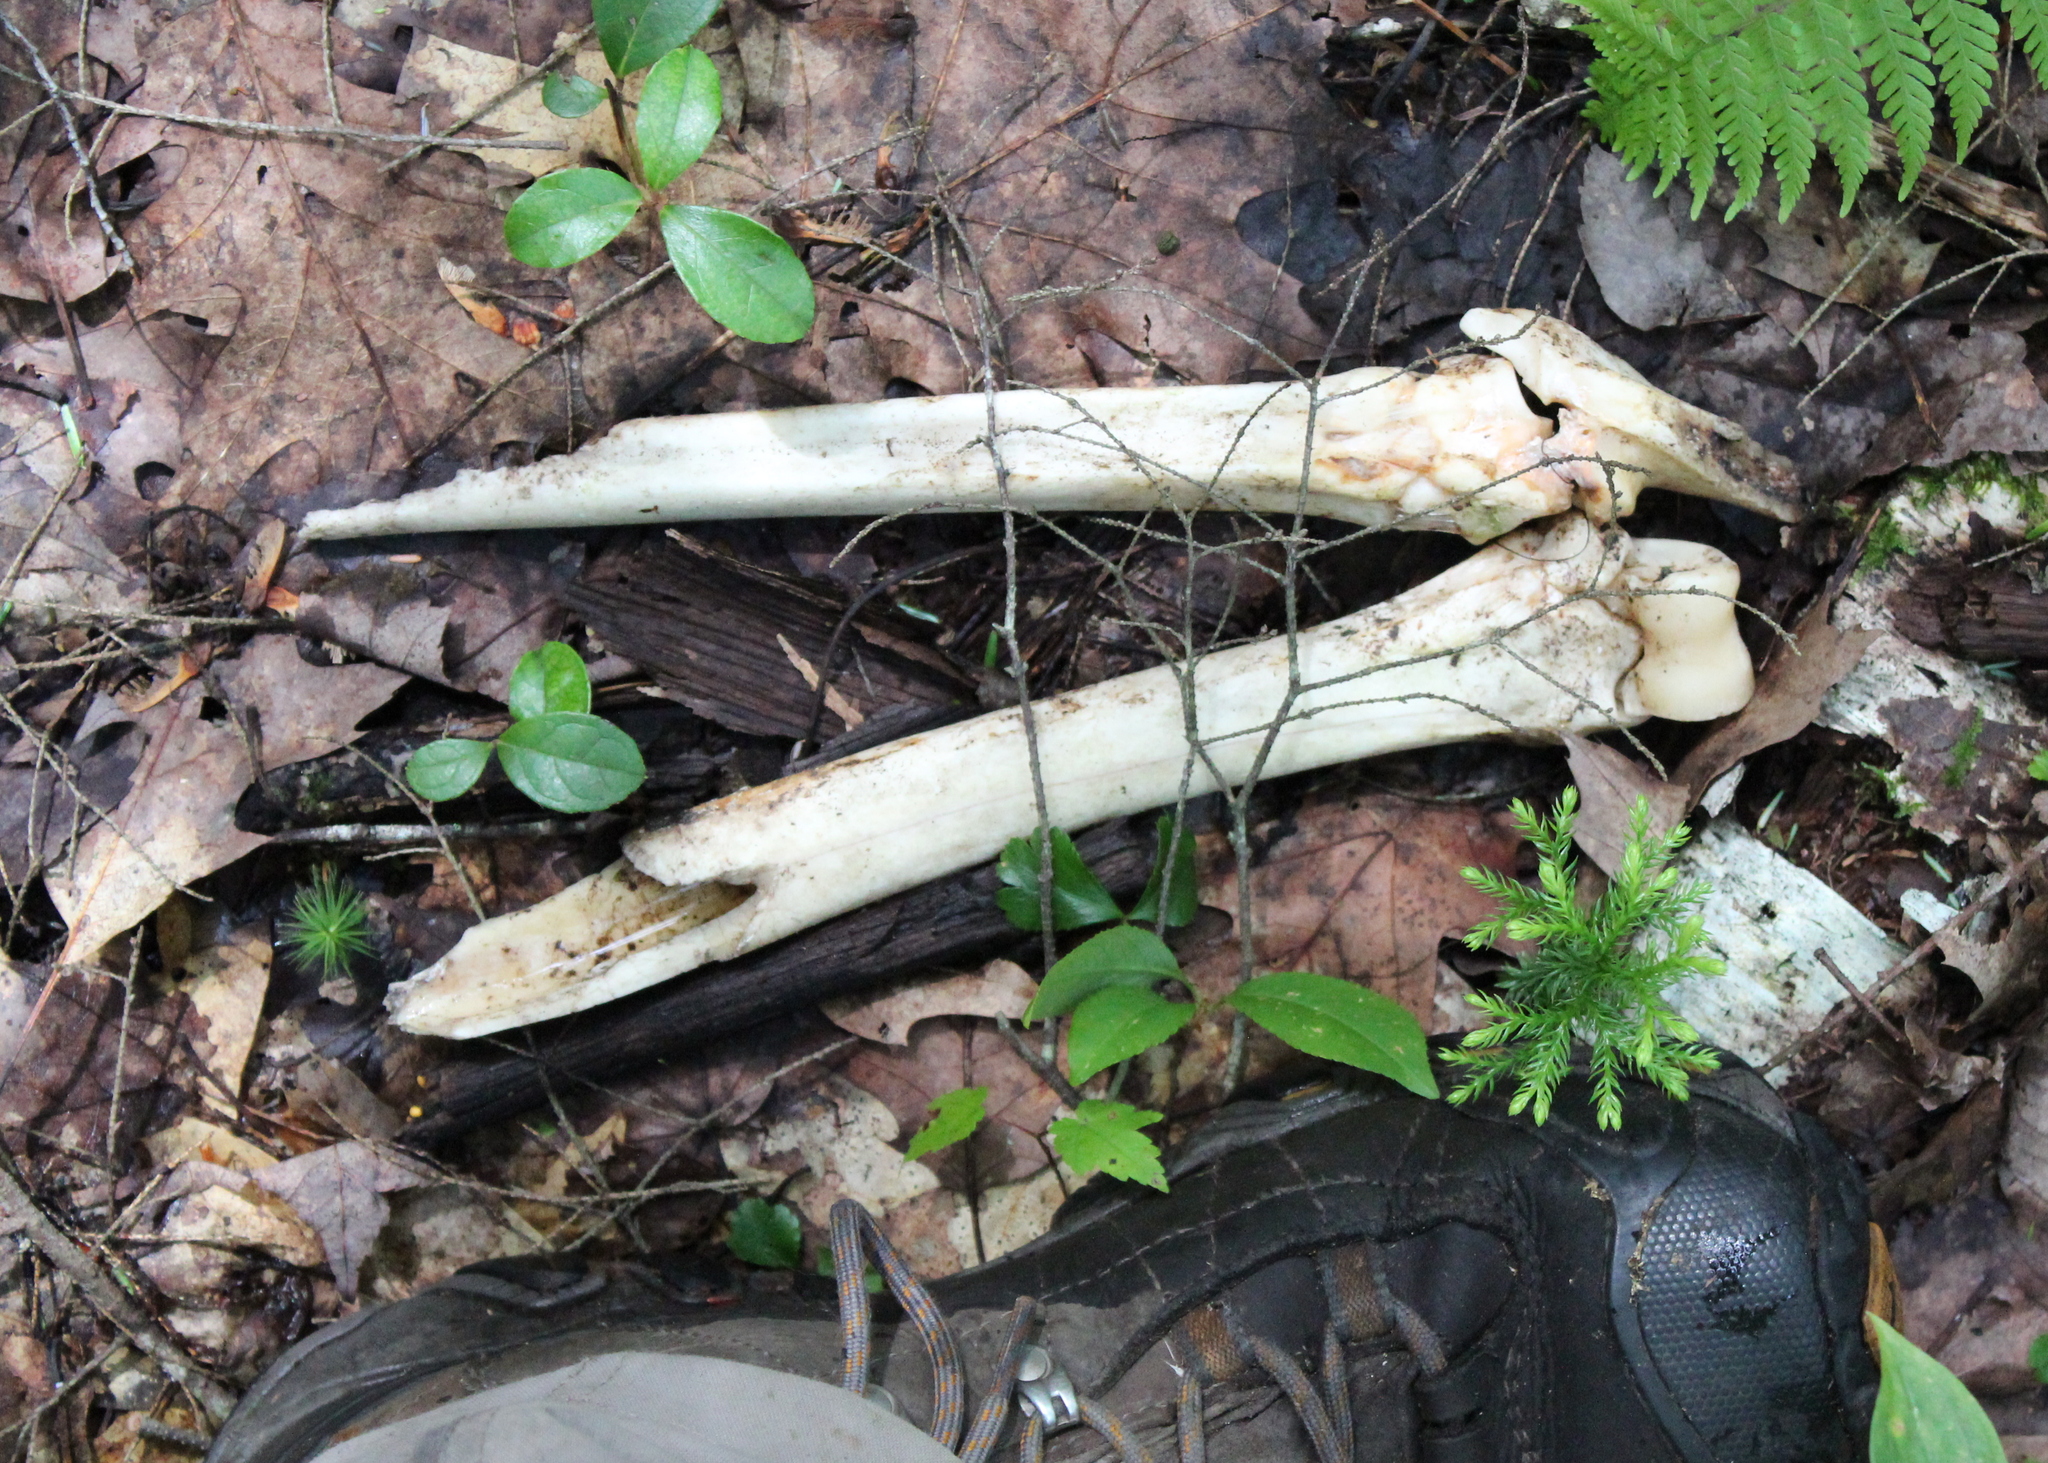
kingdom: Animalia
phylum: Chordata
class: Mammalia
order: Artiodactyla
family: Cervidae
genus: Odocoileus
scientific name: Odocoileus virginianus
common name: White-tailed deer
